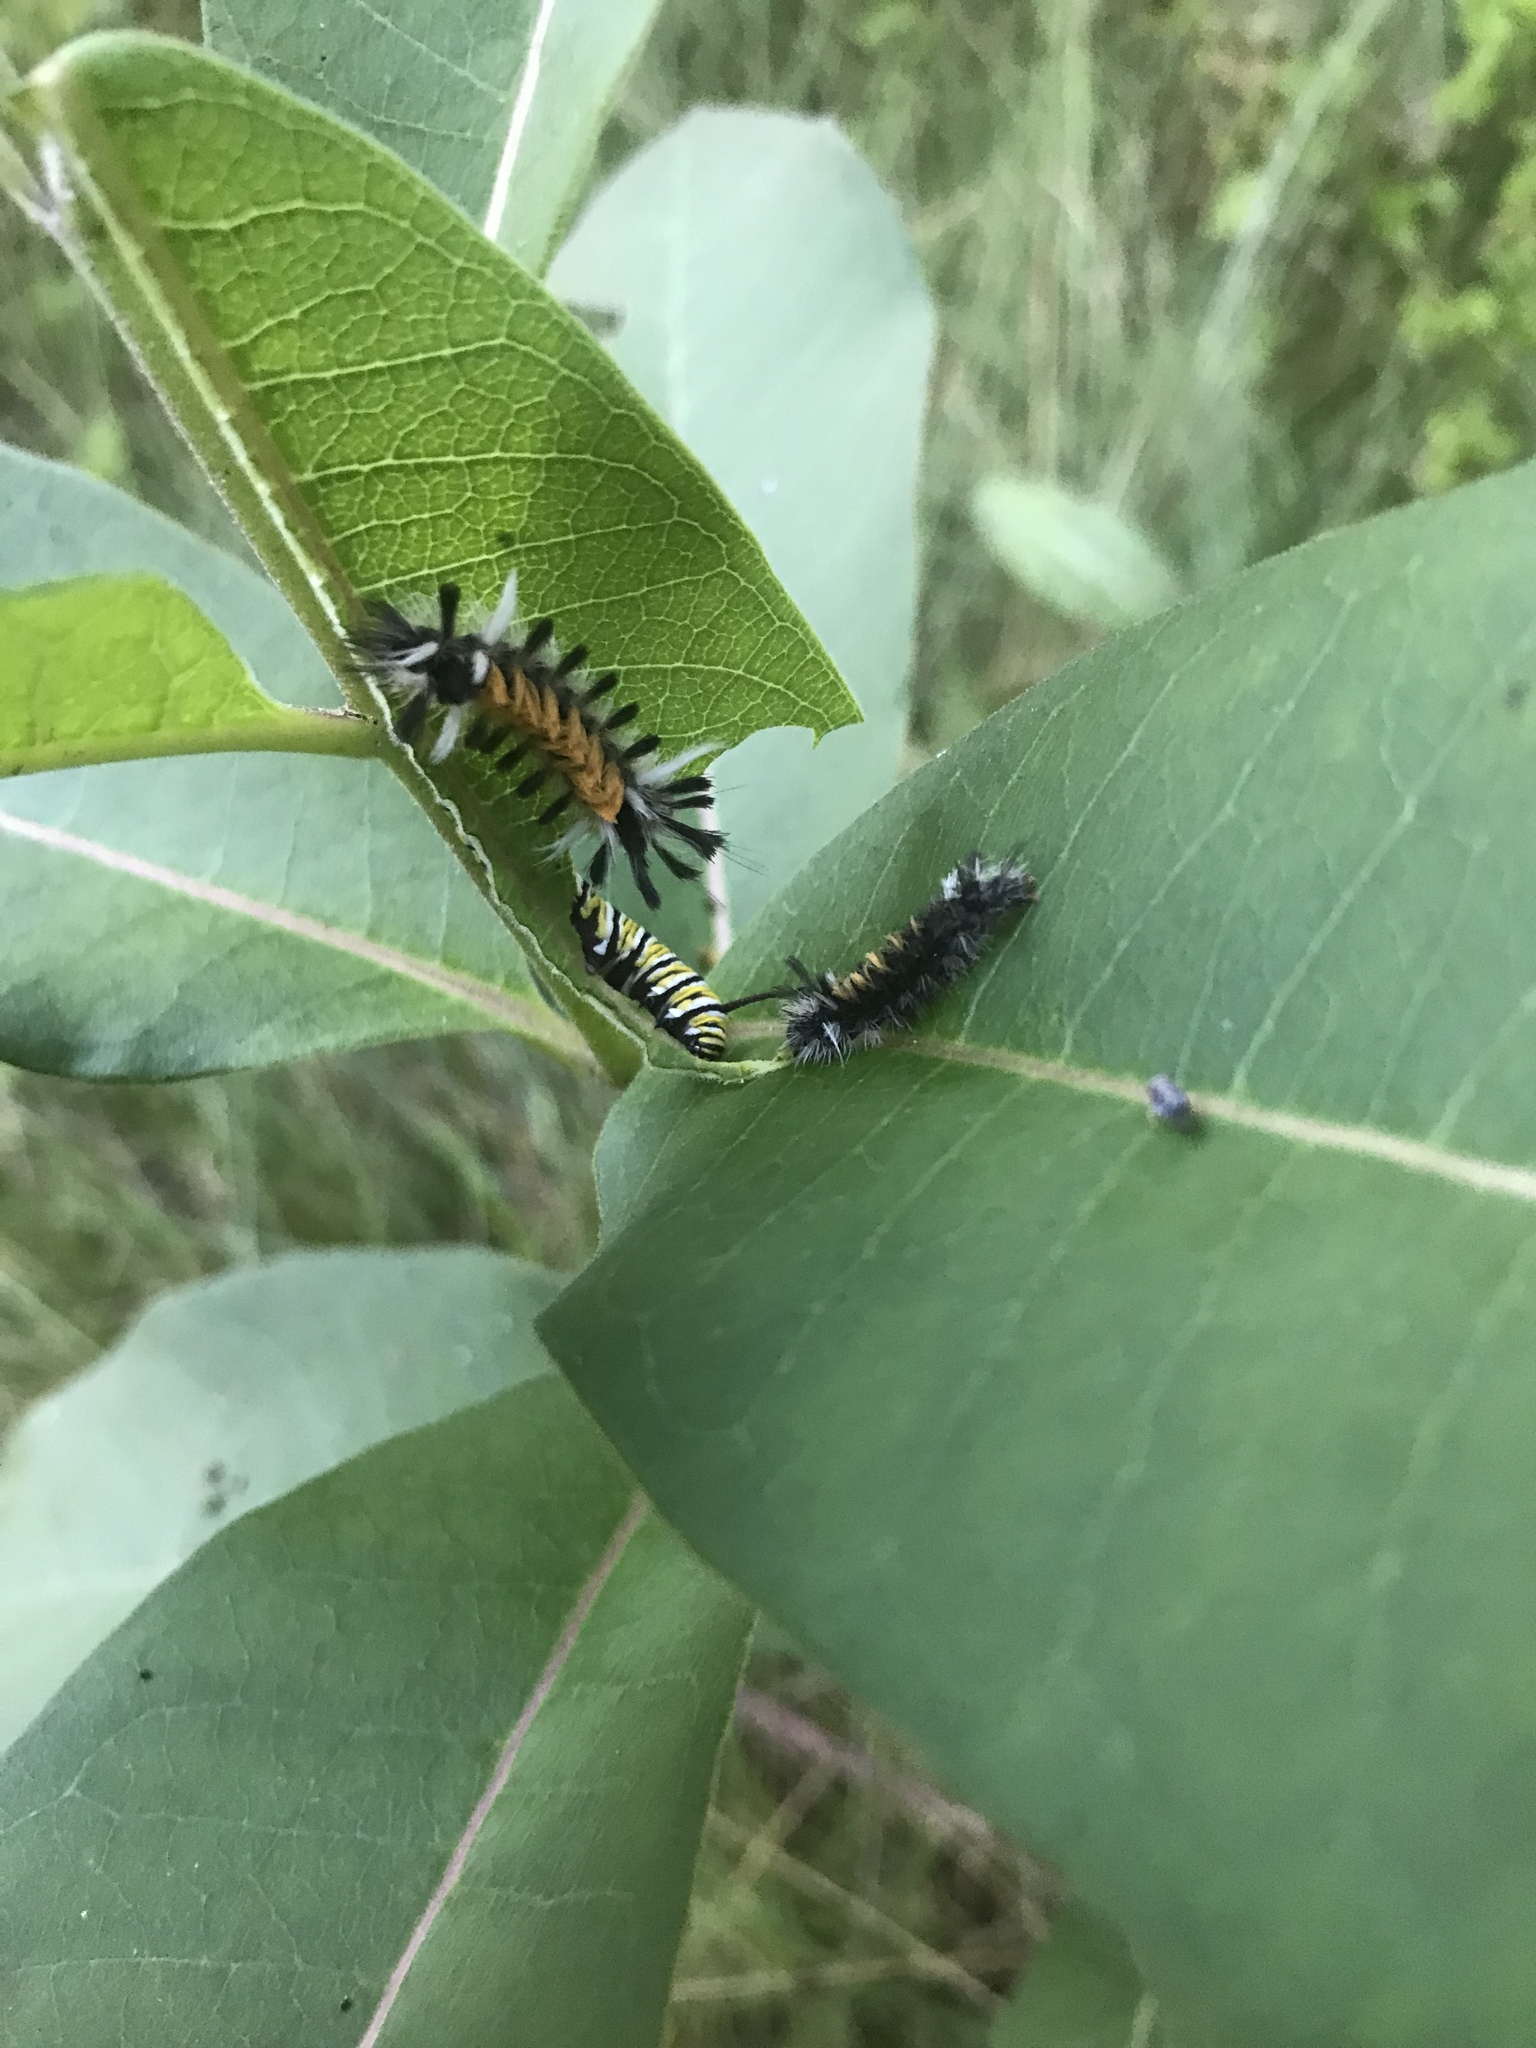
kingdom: Animalia
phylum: Arthropoda
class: Insecta
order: Lepidoptera
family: Nymphalidae
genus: Danaus
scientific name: Danaus plexippus
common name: Monarch
